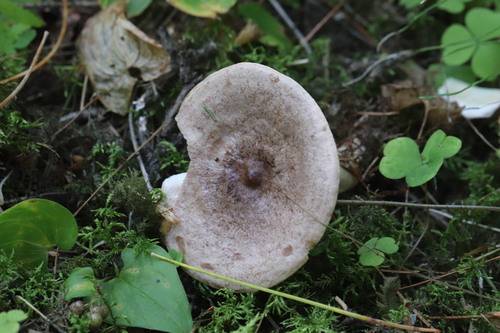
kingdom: Fungi
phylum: Basidiomycota
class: Agaricomycetes
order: Russulales
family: Russulaceae
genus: Lactarius
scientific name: Lactarius trivialis
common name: Tacked milkcap
